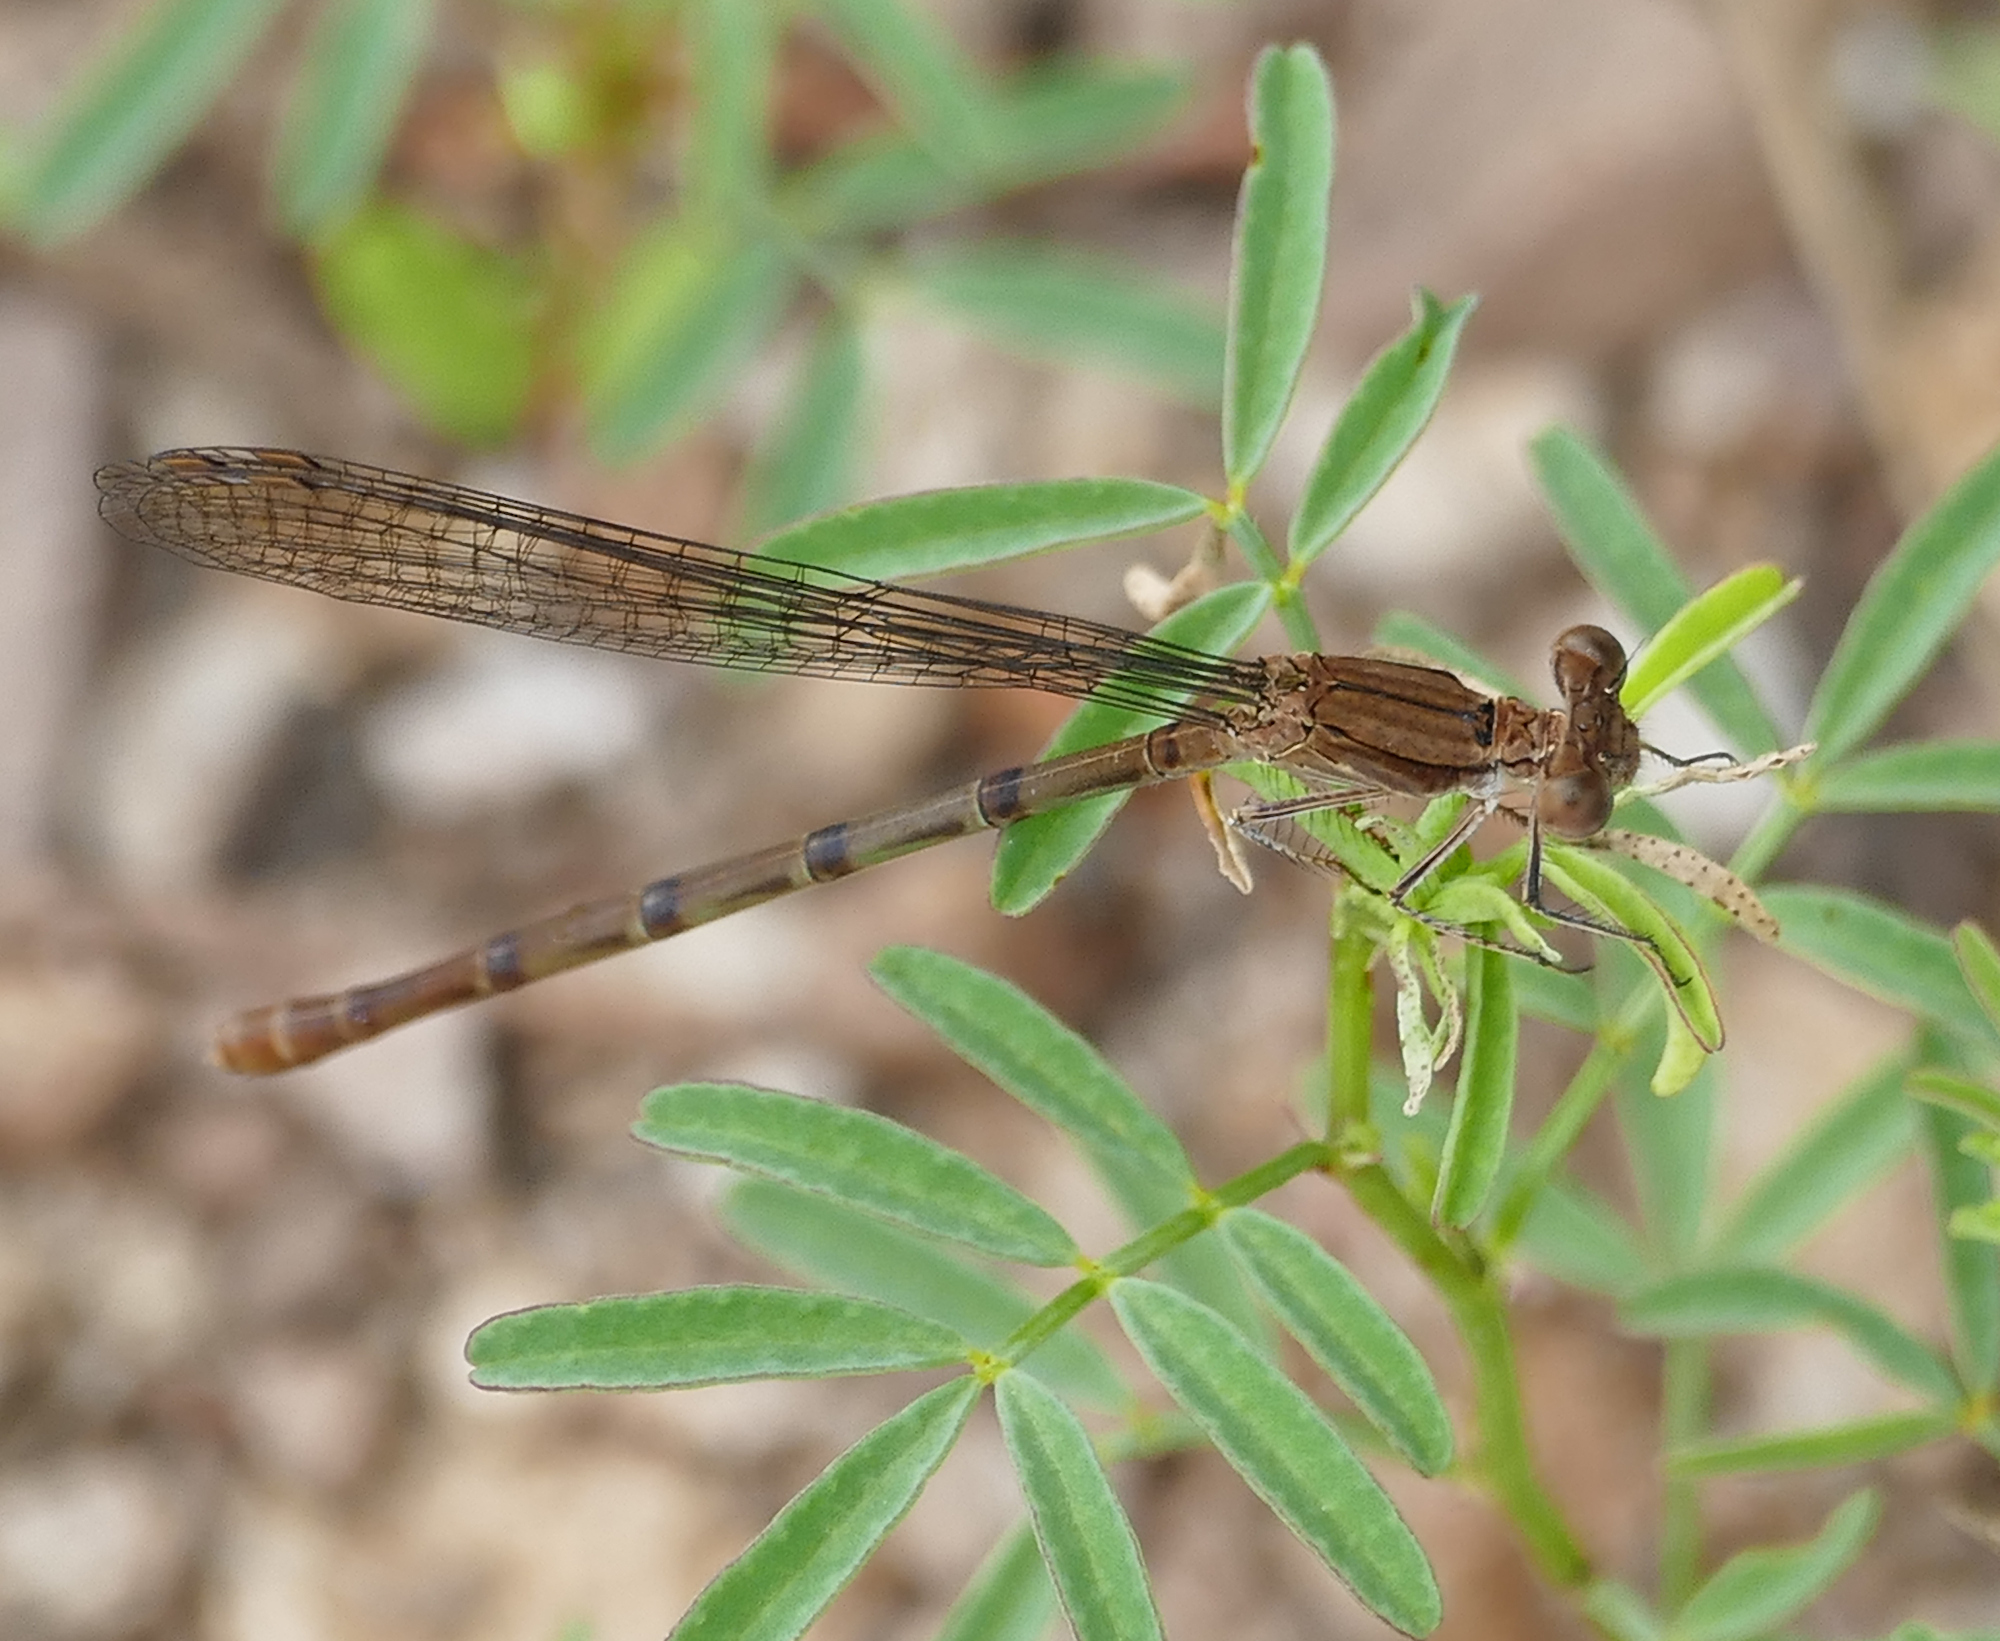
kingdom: Animalia
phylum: Arthropoda
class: Insecta
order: Odonata
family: Coenagrionidae
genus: Argia
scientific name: Argia sedula
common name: Blue-ringed dancer
